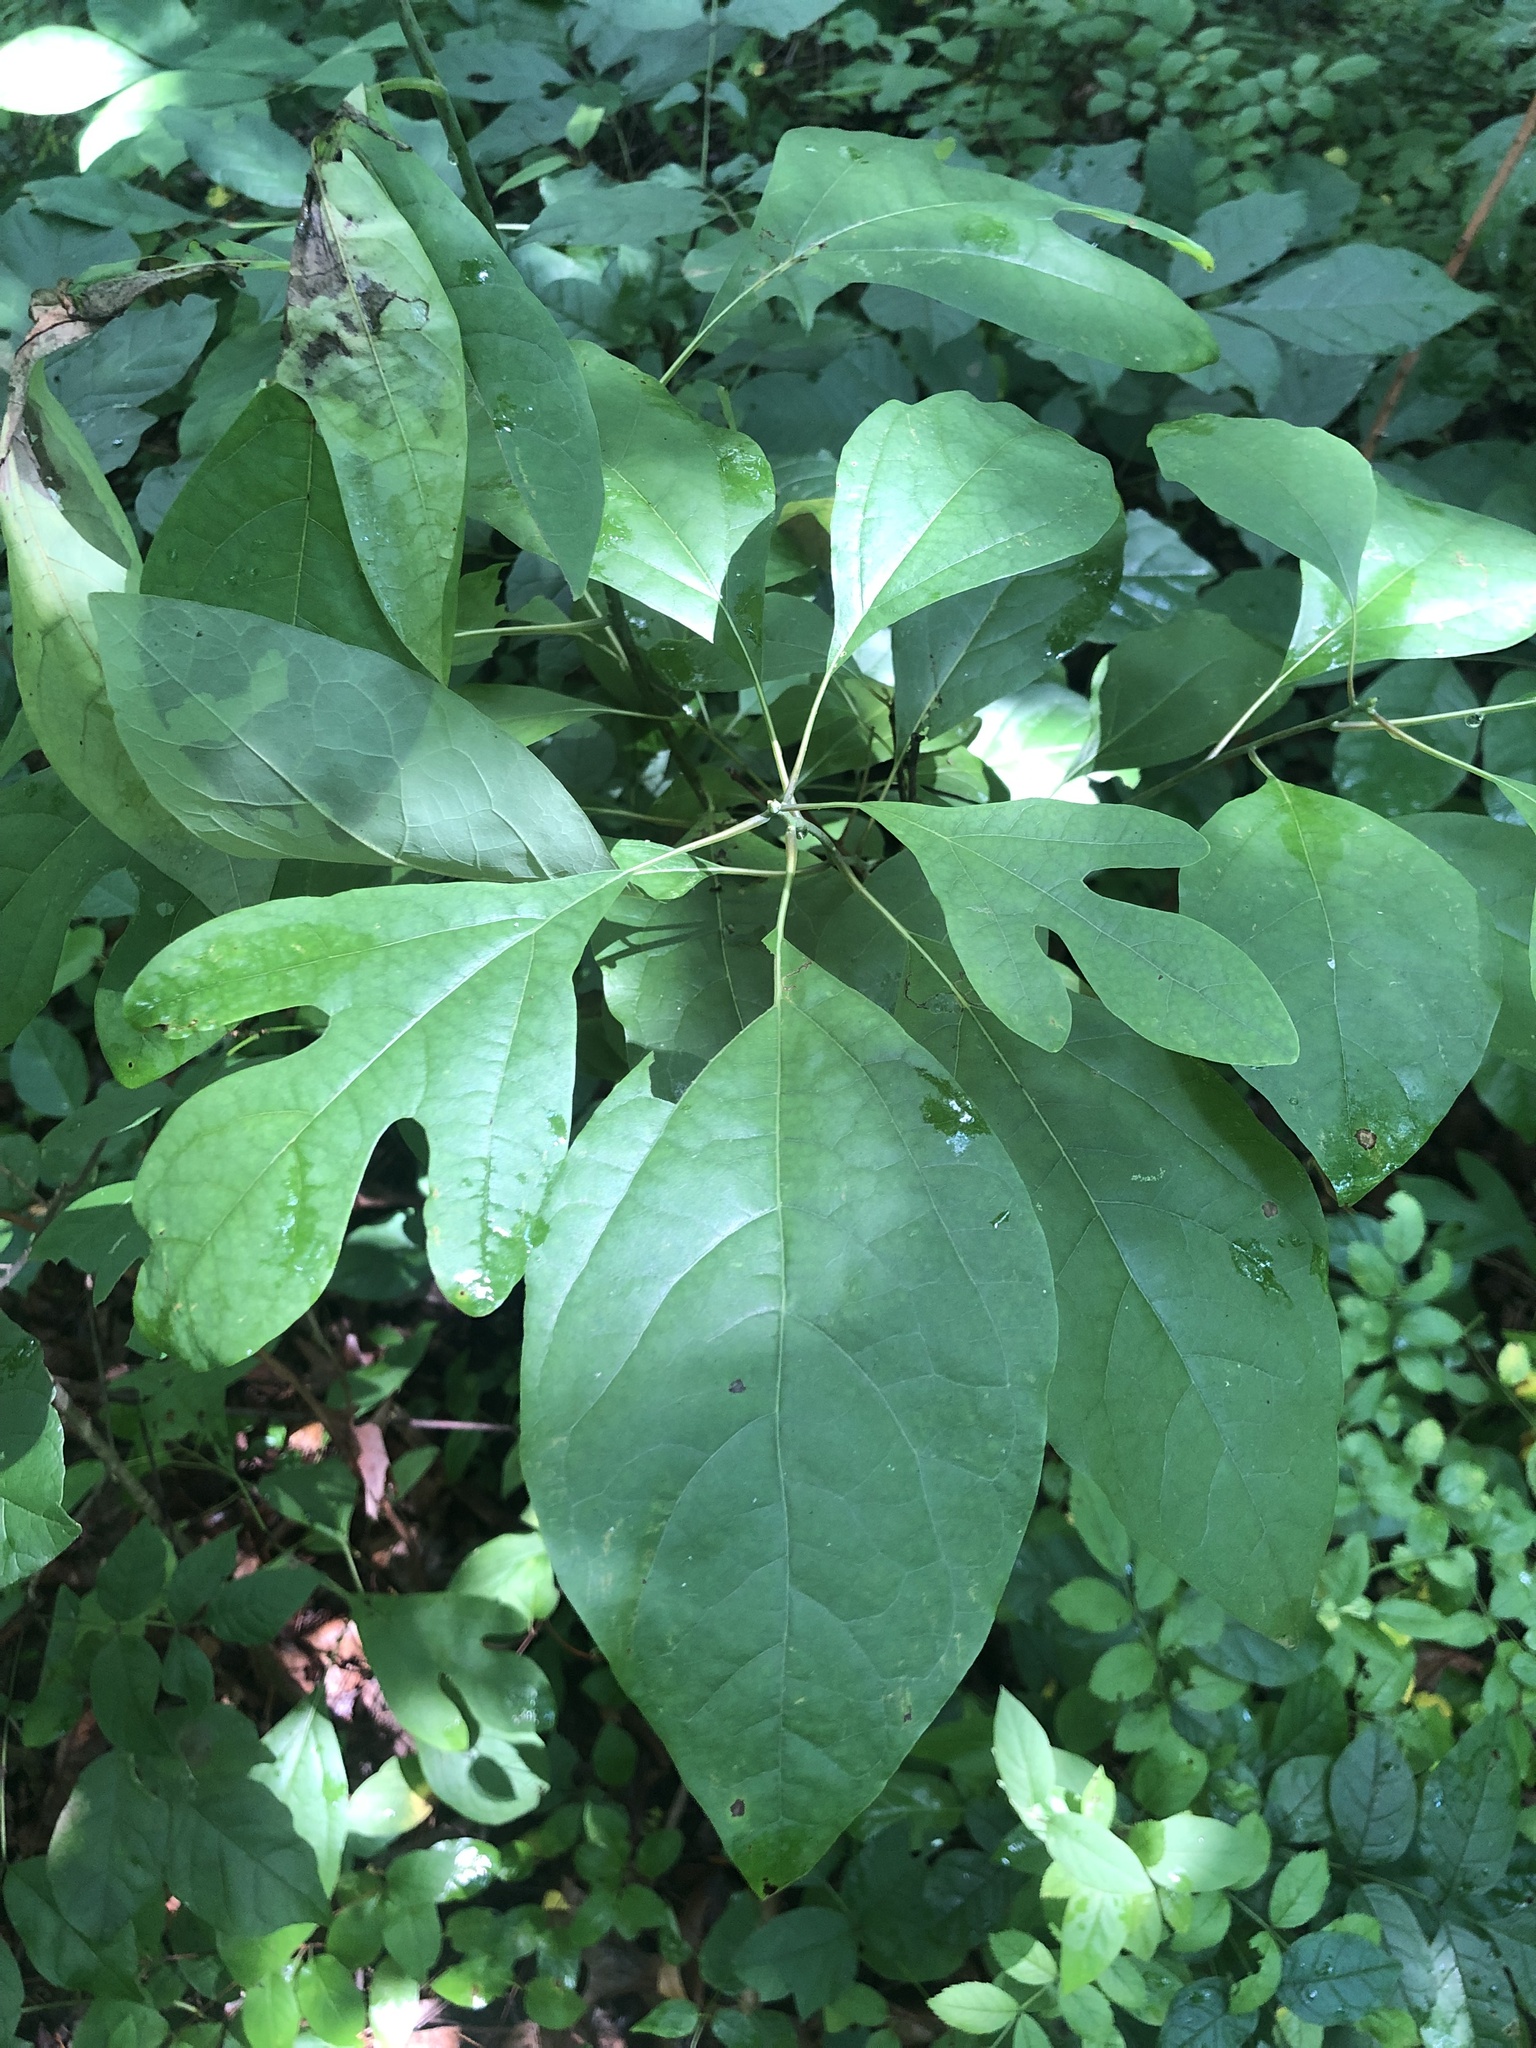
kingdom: Plantae
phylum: Tracheophyta
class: Magnoliopsida
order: Laurales
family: Lauraceae
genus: Sassafras
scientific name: Sassafras albidum
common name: Sassafras
